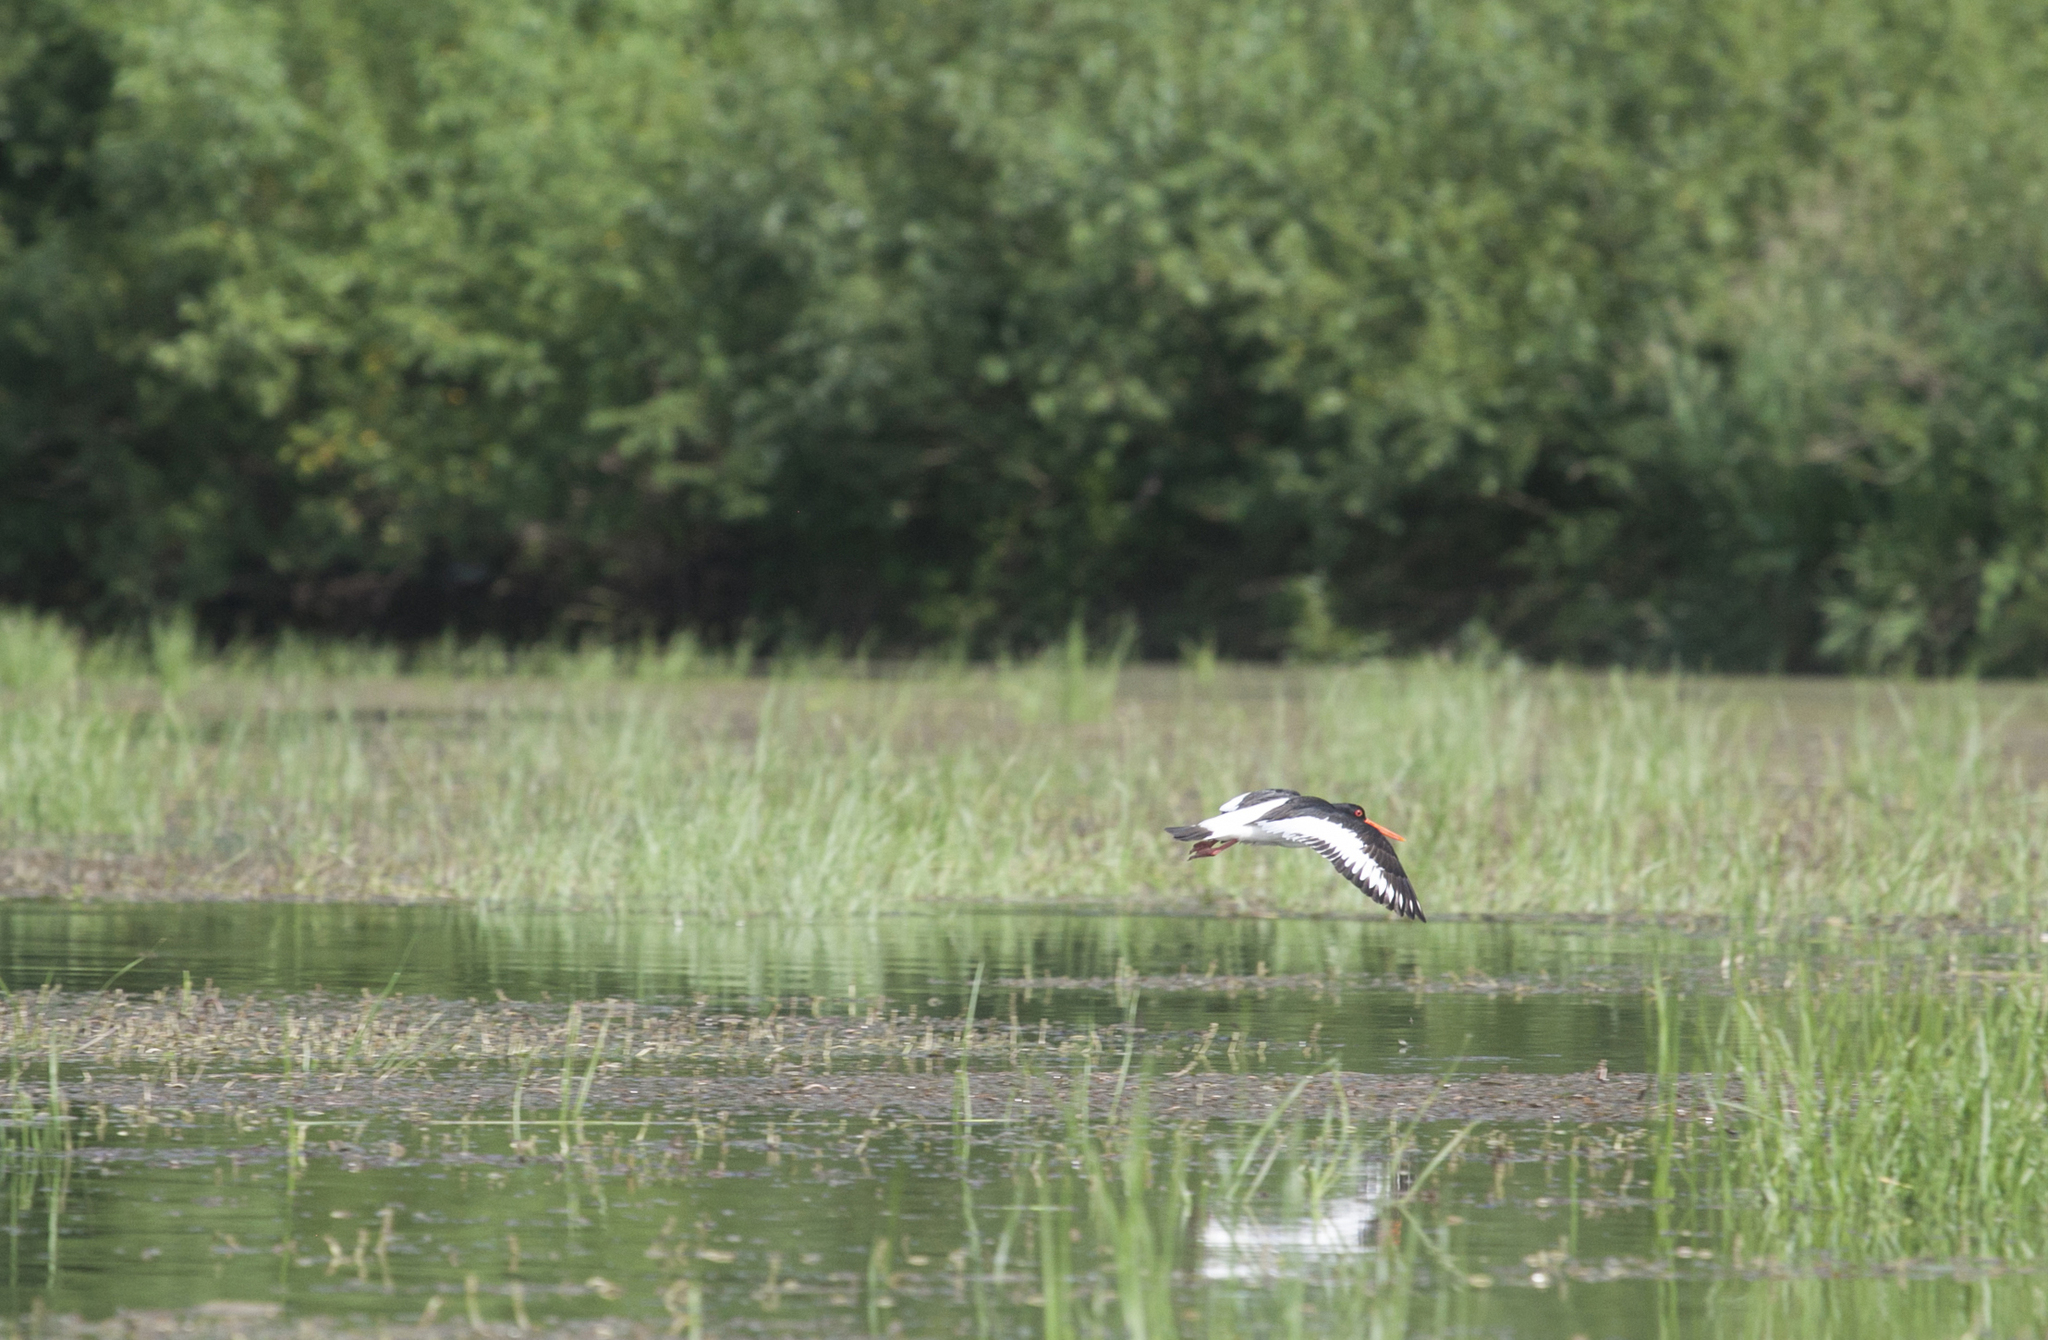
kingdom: Animalia
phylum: Chordata
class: Aves
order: Charadriiformes
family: Haematopodidae
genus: Haematopus
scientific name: Haematopus ostralegus
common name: Eurasian oystercatcher
